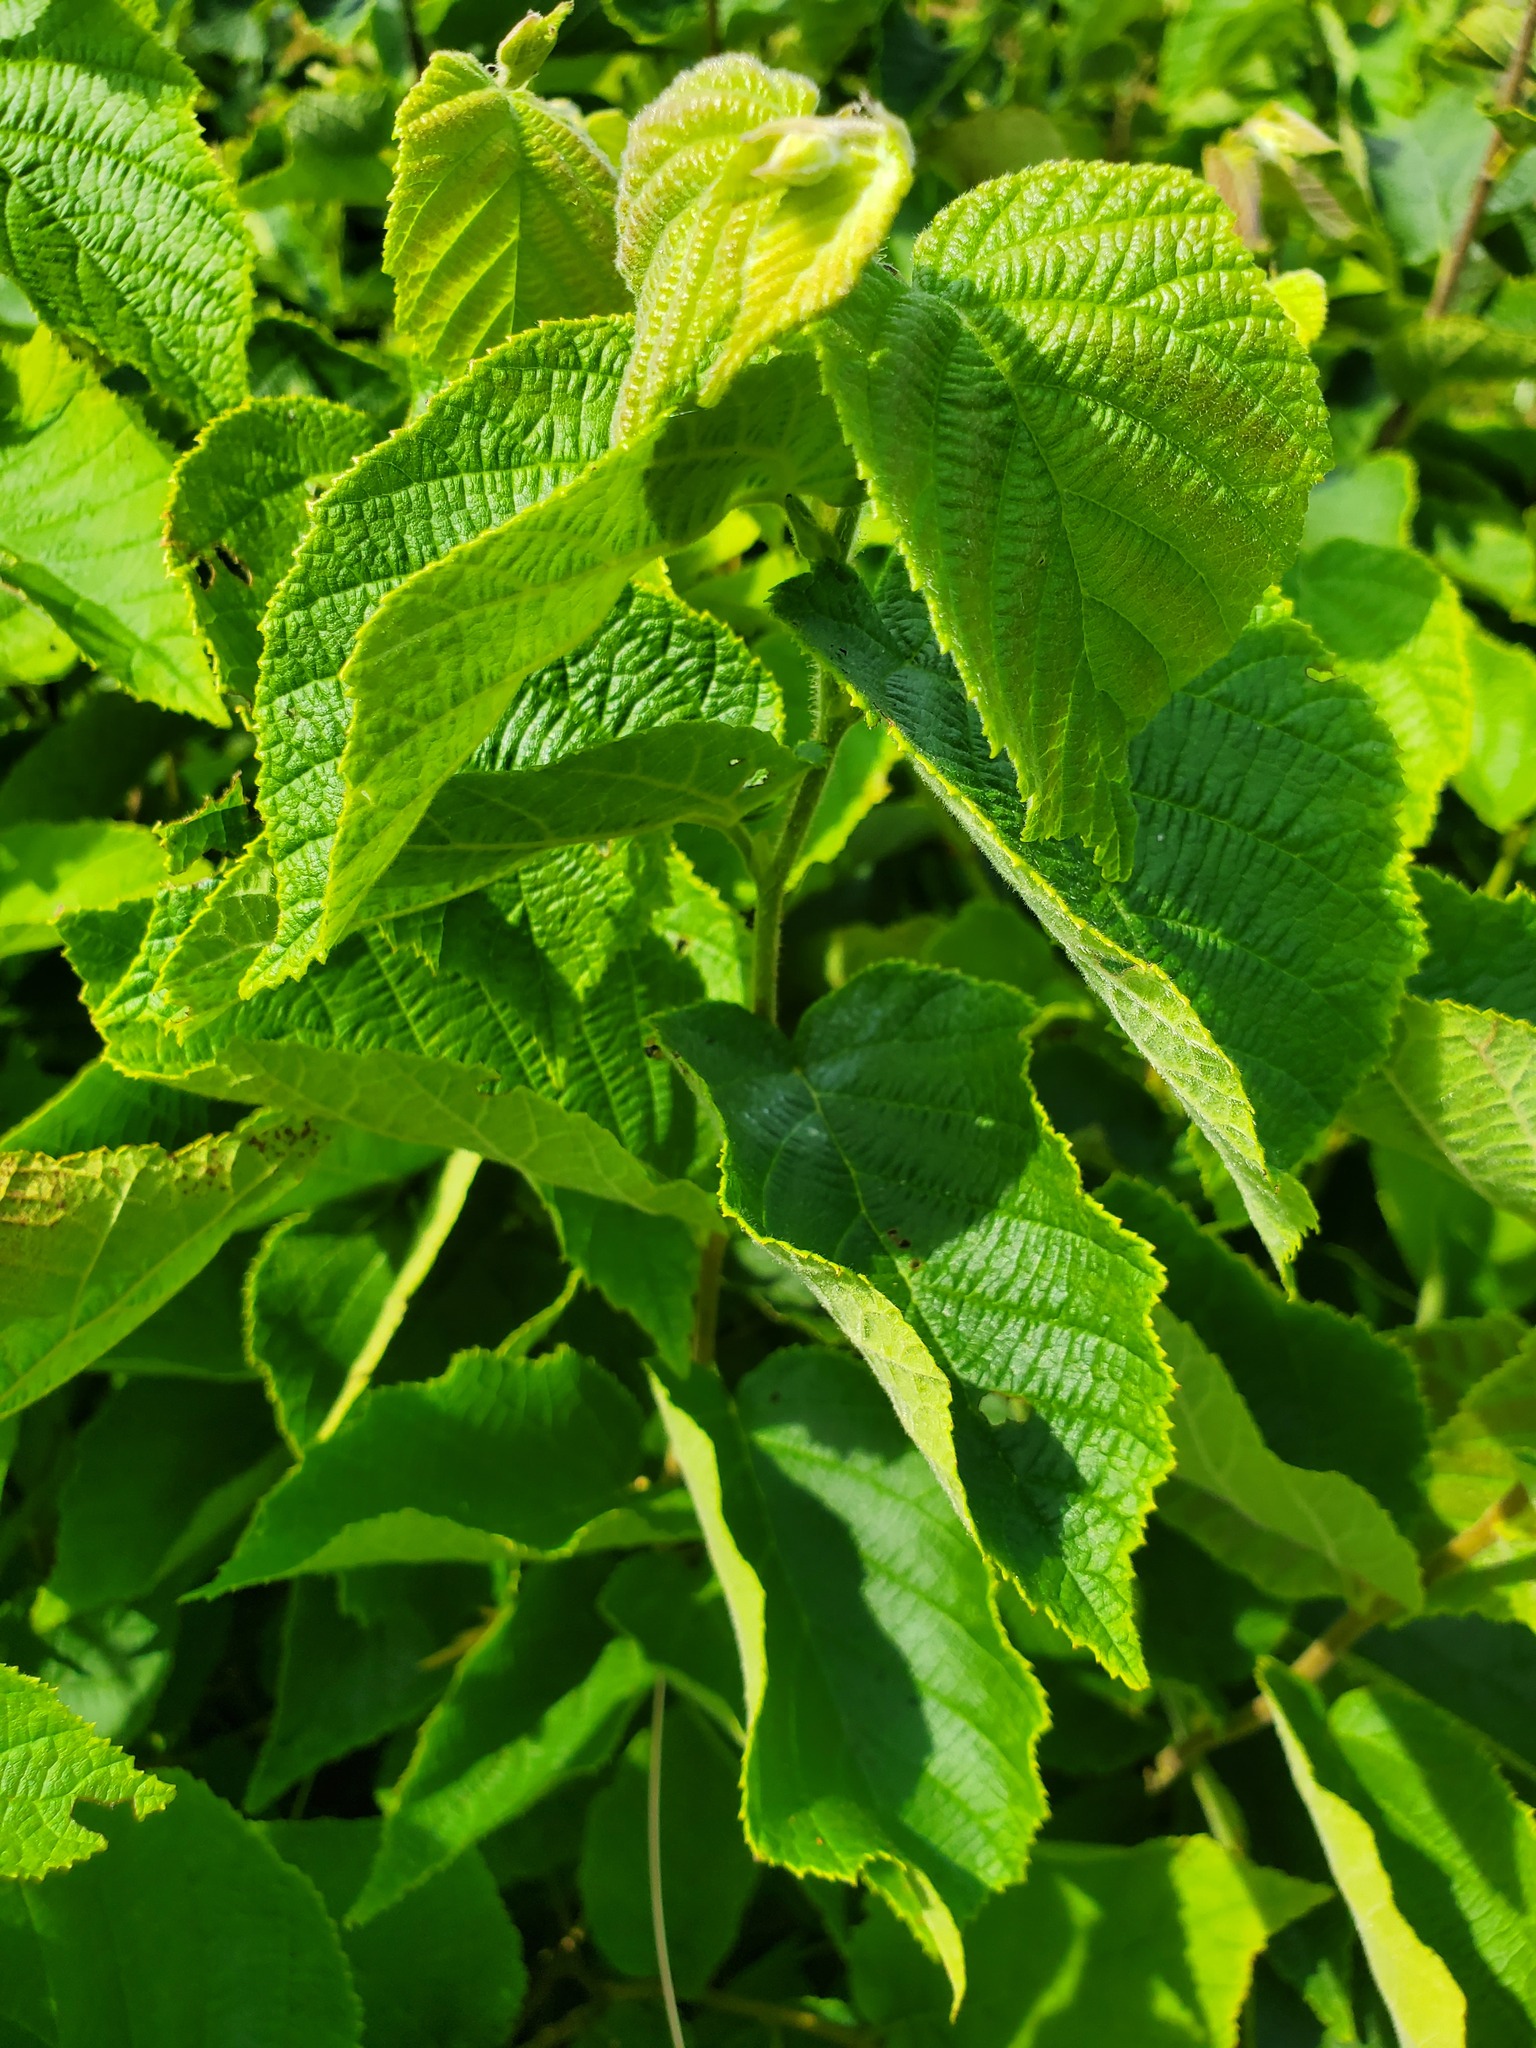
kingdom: Plantae
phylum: Tracheophyta
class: Magnoliopsida
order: Fagales
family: Betulaceae
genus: Corylus
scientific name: Corylus americana
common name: American hazel
